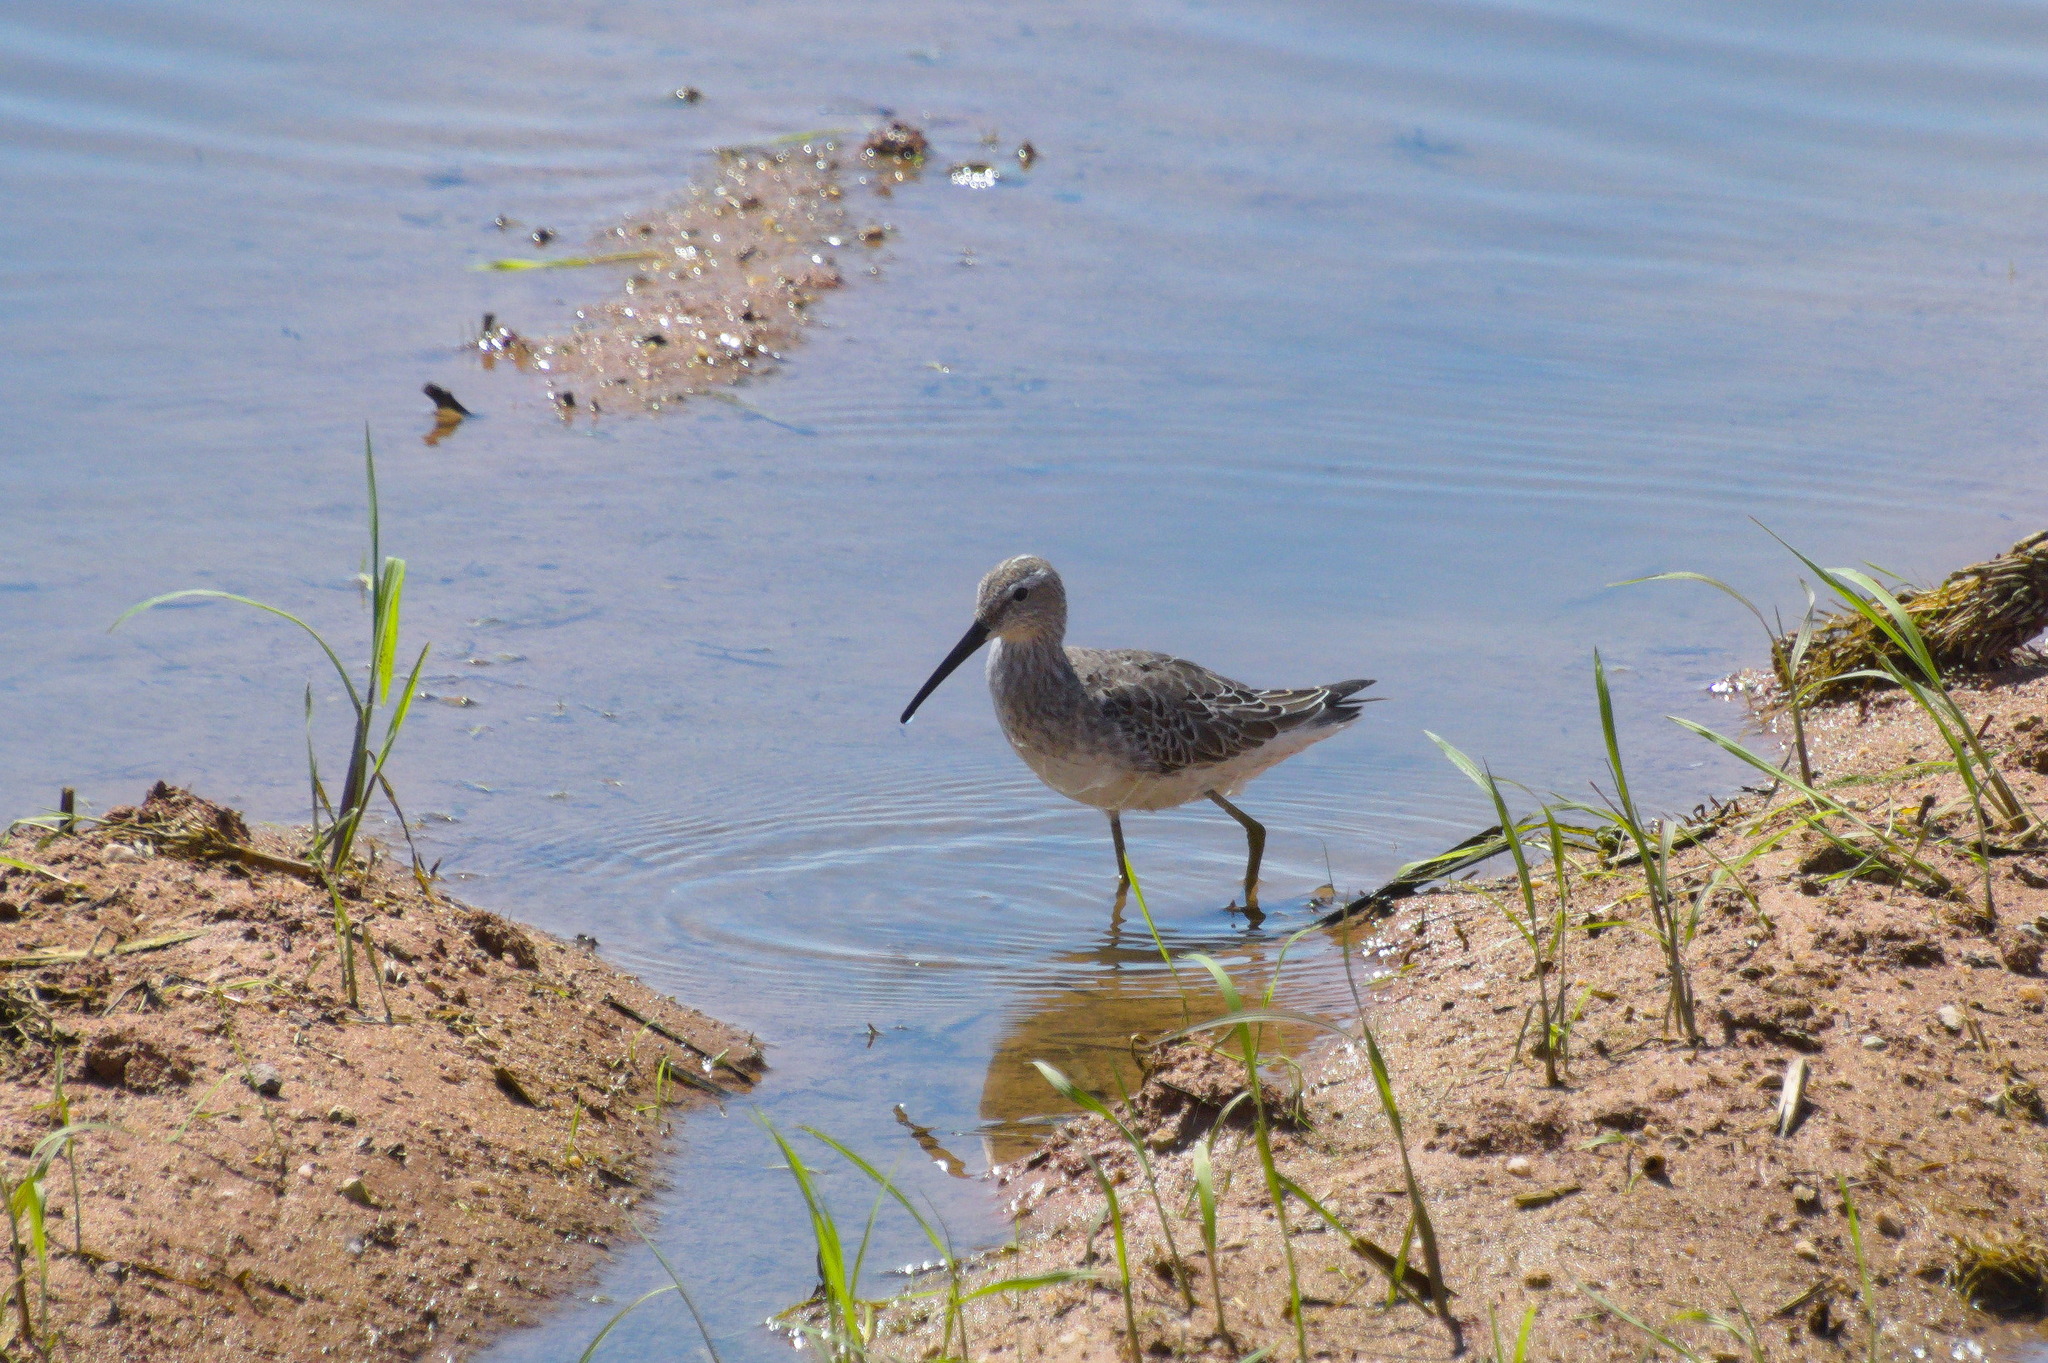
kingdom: Animalia
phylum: Chordata
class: Aves
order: Charadriiformes
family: Scolopacidae
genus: Calidris
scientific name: Calidris himantopus
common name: Stilt sandpiper
